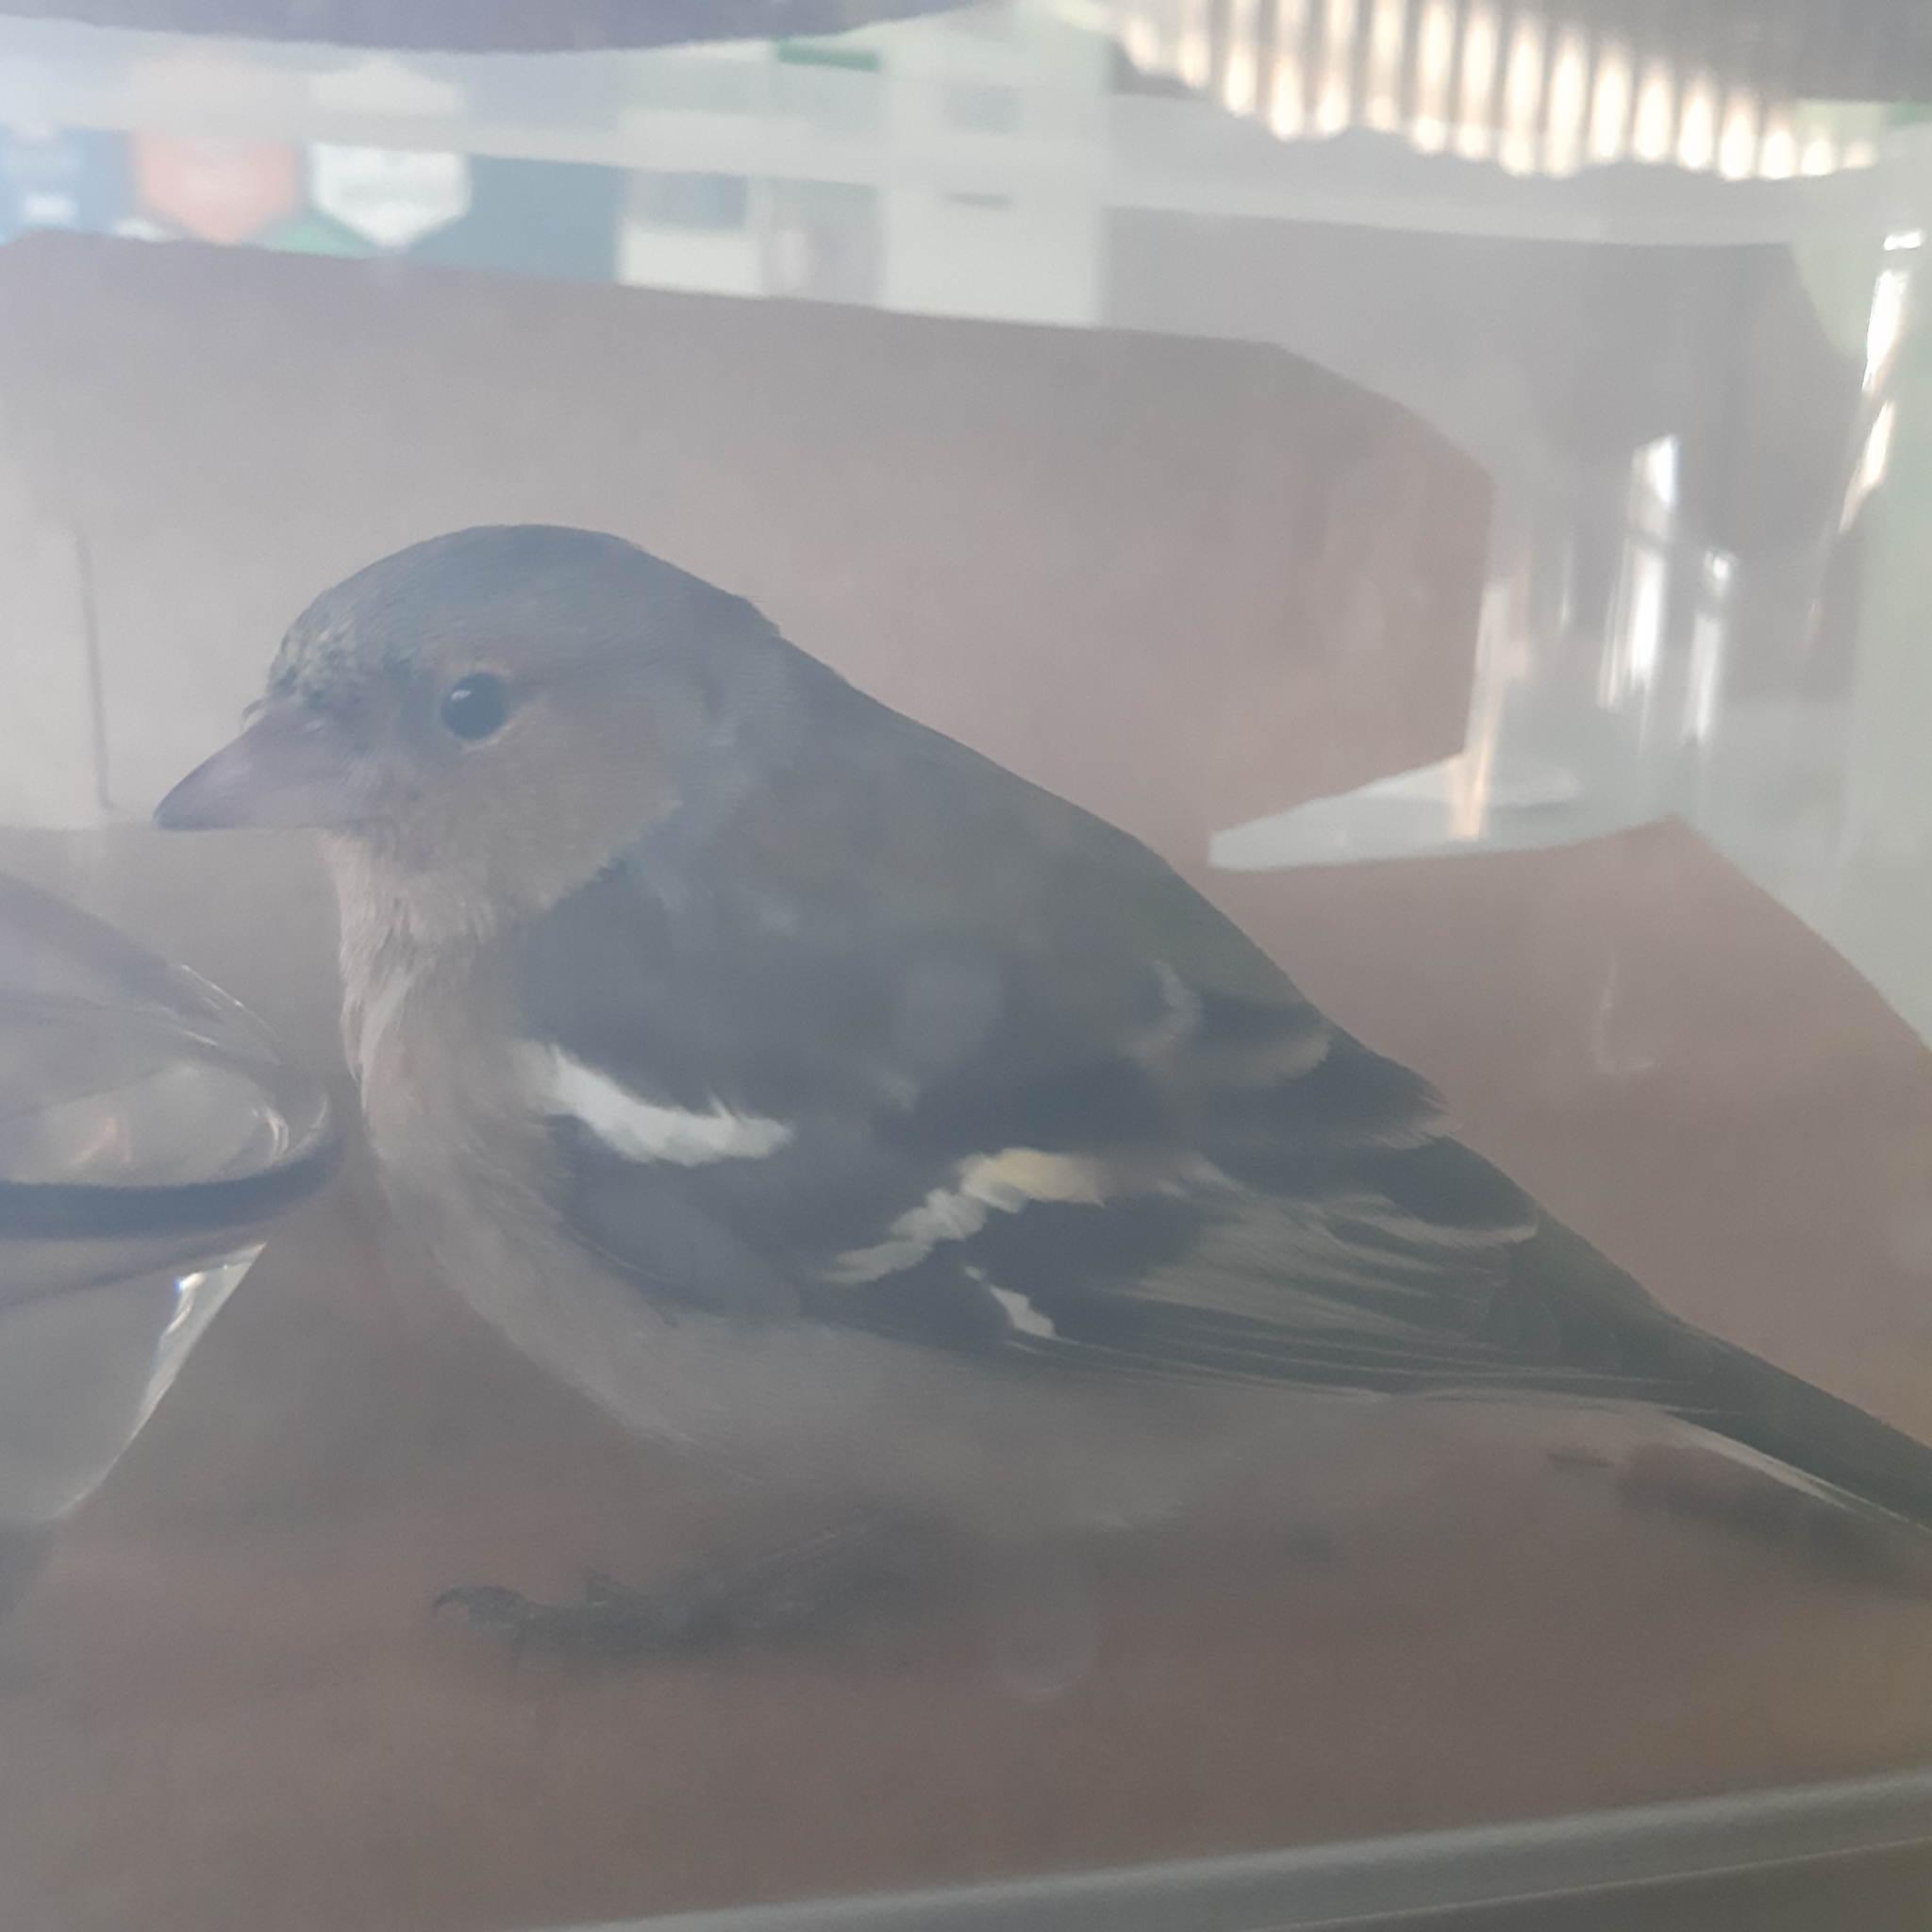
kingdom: Animalia
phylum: Chordata
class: Aves
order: Passeriformes
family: Fringillidae
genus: Fringilla
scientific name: Fringilla coelebs
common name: Common chaffinch
